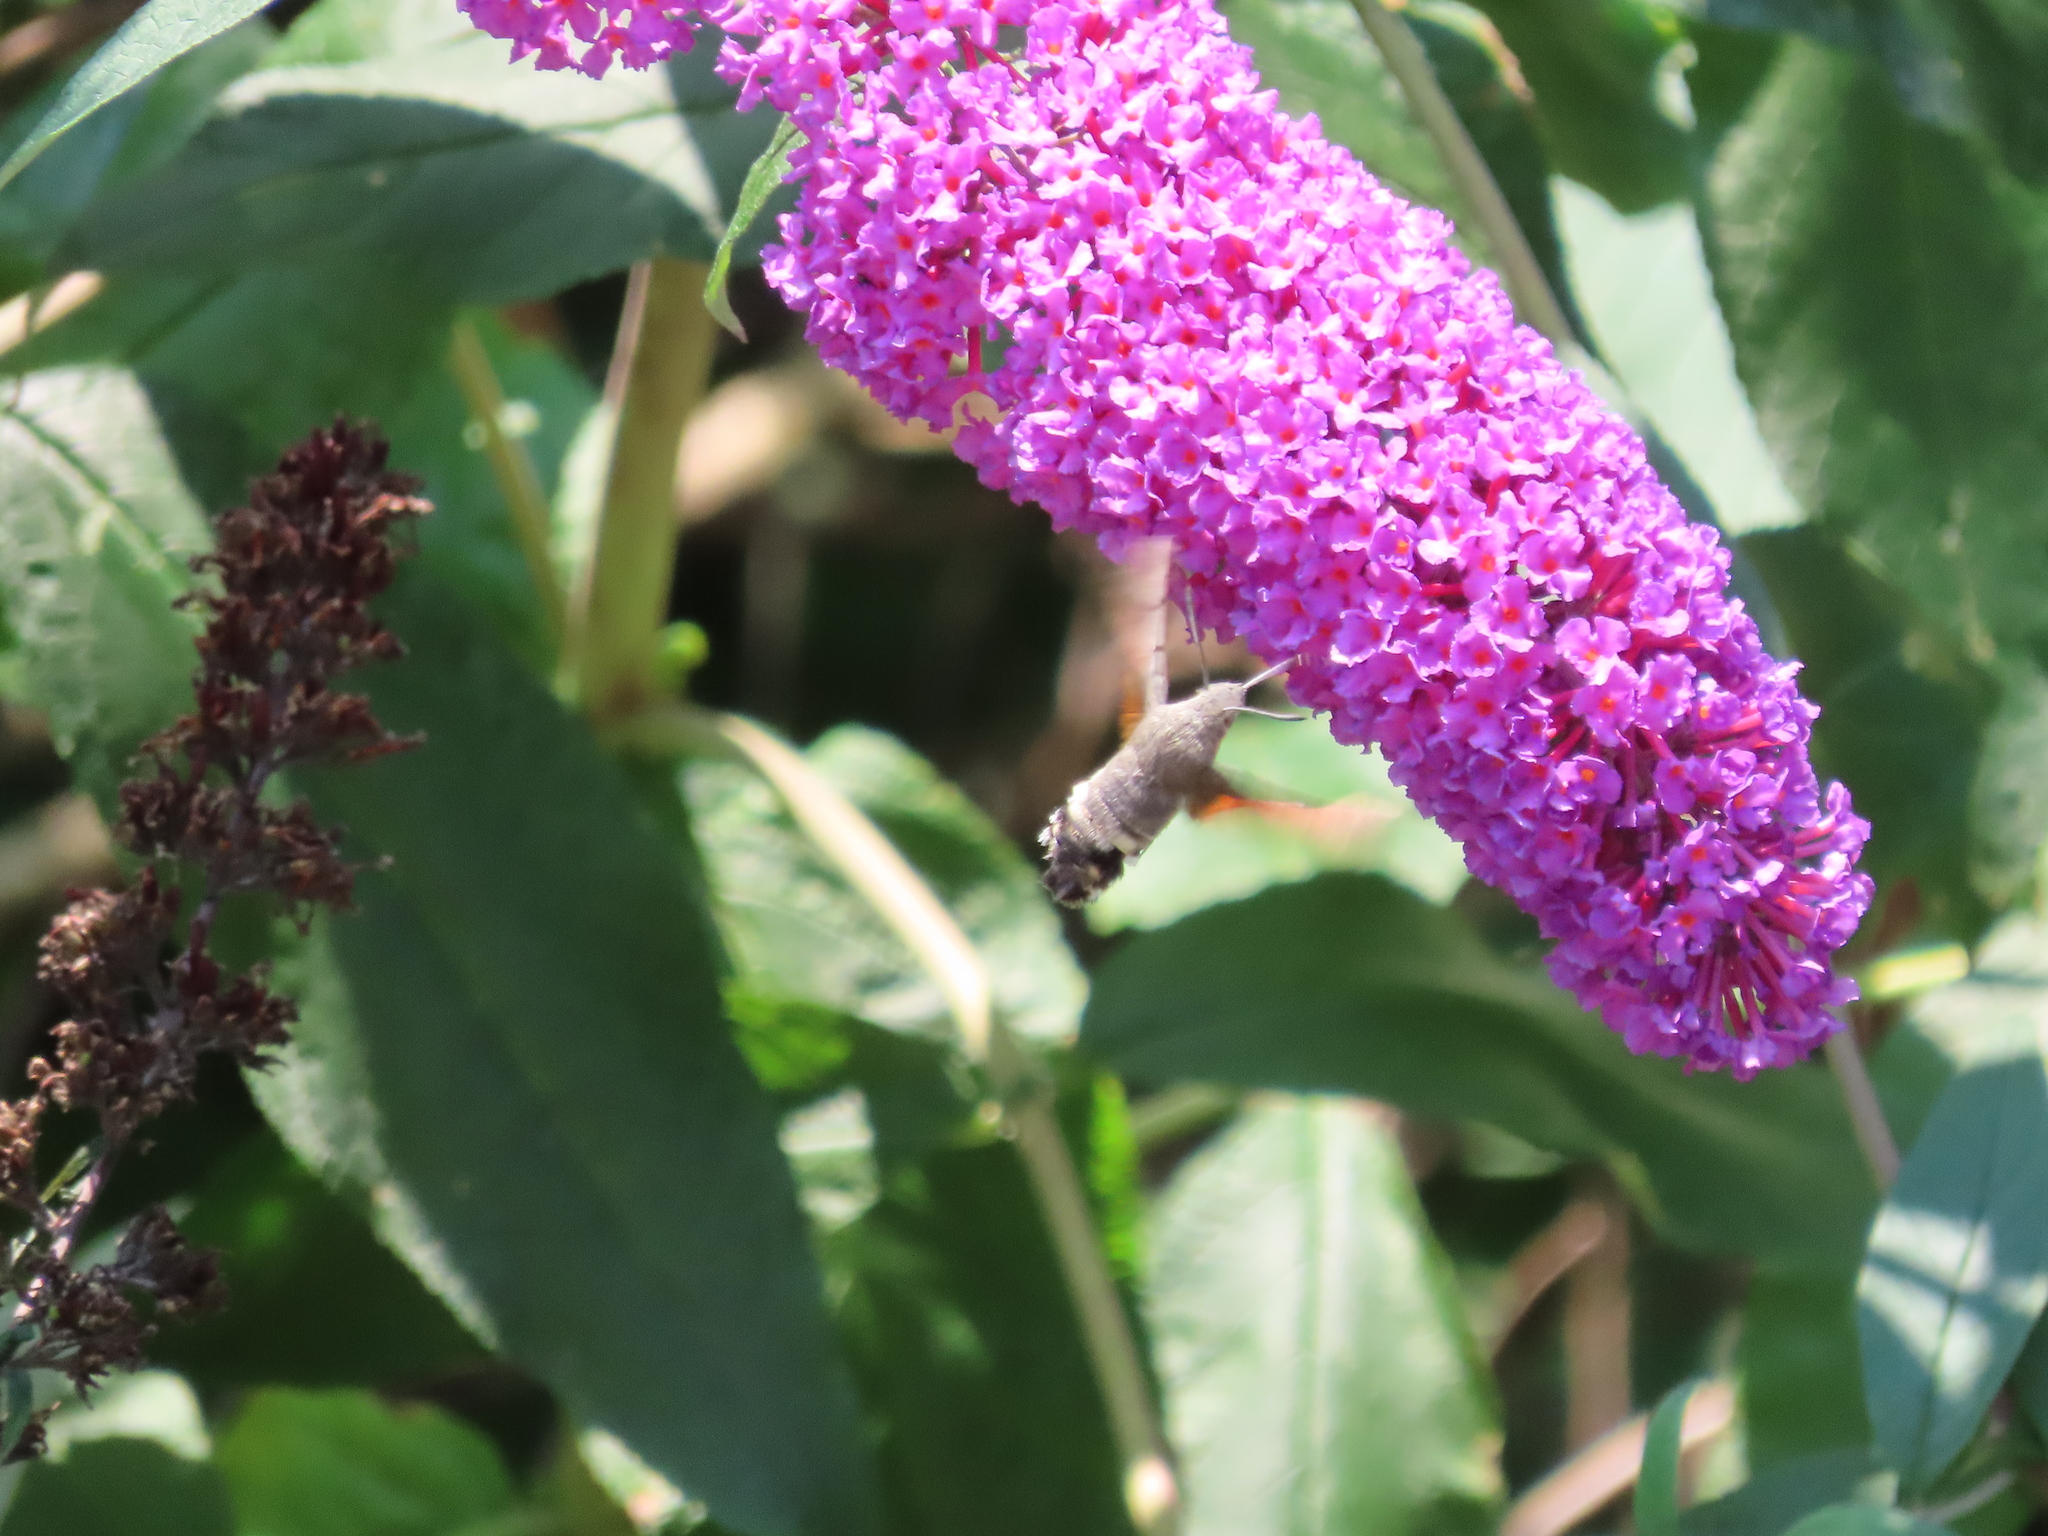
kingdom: Animalia
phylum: Arthropoda
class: Insecta
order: Lepidoptera
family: Sphingidae
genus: Macroglossum
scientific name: Macroglossum stellatarum
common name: Humming-bird hawk-moth
